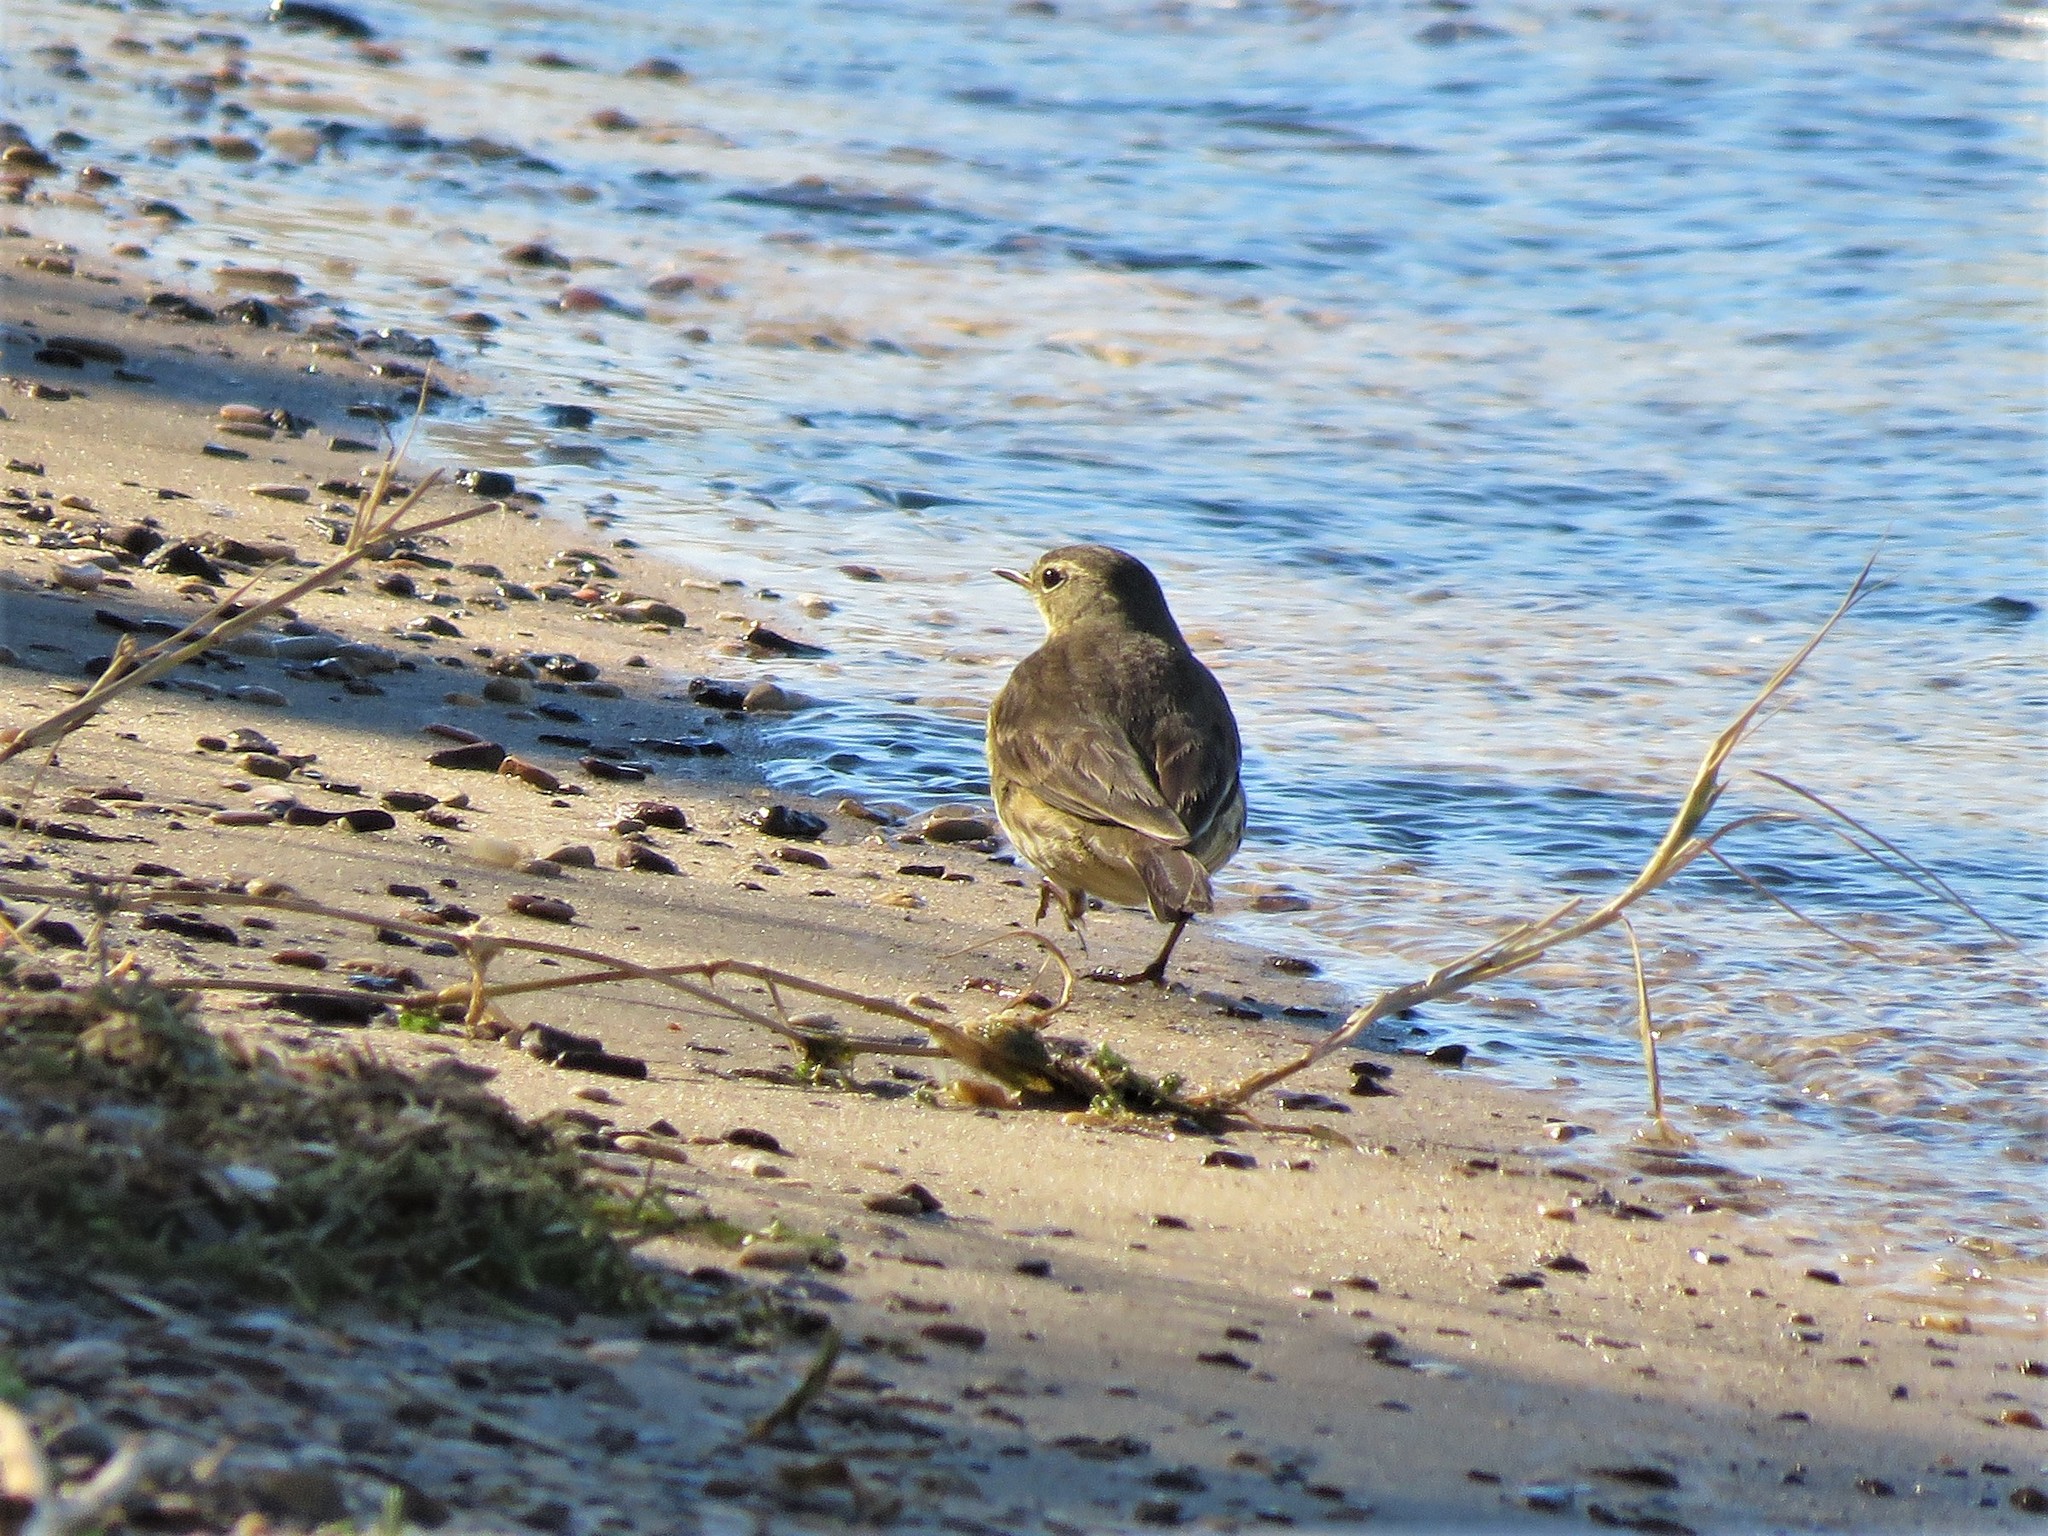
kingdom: Animalia
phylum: Chordata
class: Aves
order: Passeriformes
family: Motacillidae
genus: Anthus
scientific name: Anthus rubescens
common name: Buff-bellied pipit
